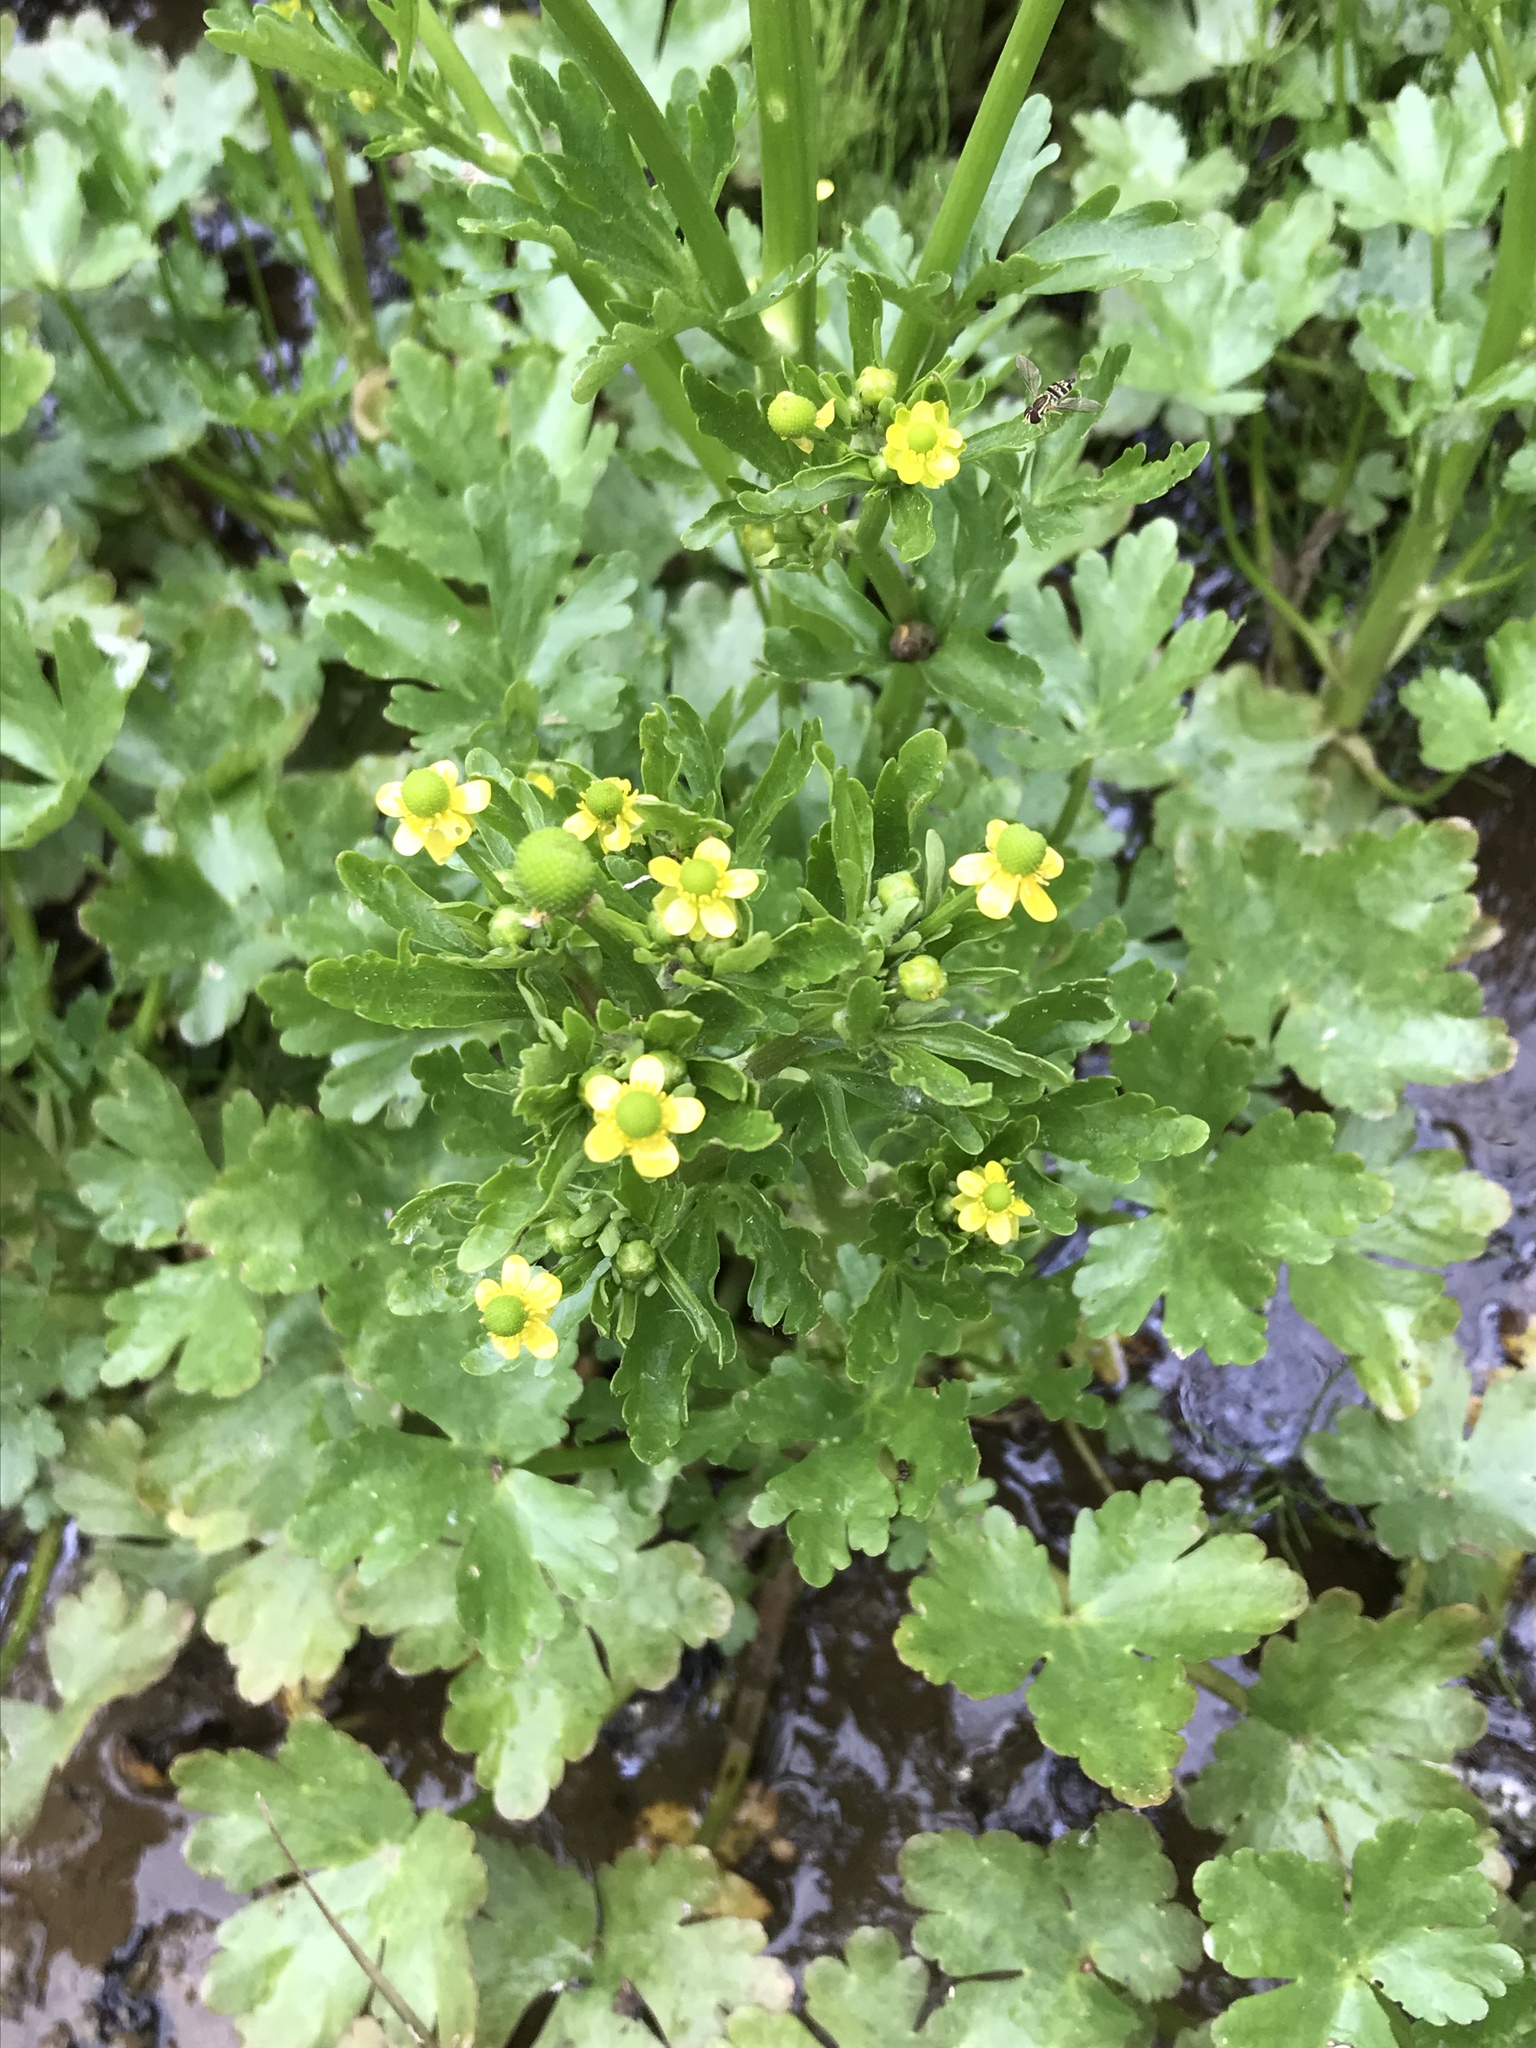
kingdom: Plantae
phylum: Tracheophyta
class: Magnoliopsida
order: Ranunculales
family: Ranunculaceae
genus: Ranunculus
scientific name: Ranunculus sceleratus
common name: Celery-leaved buttercup
